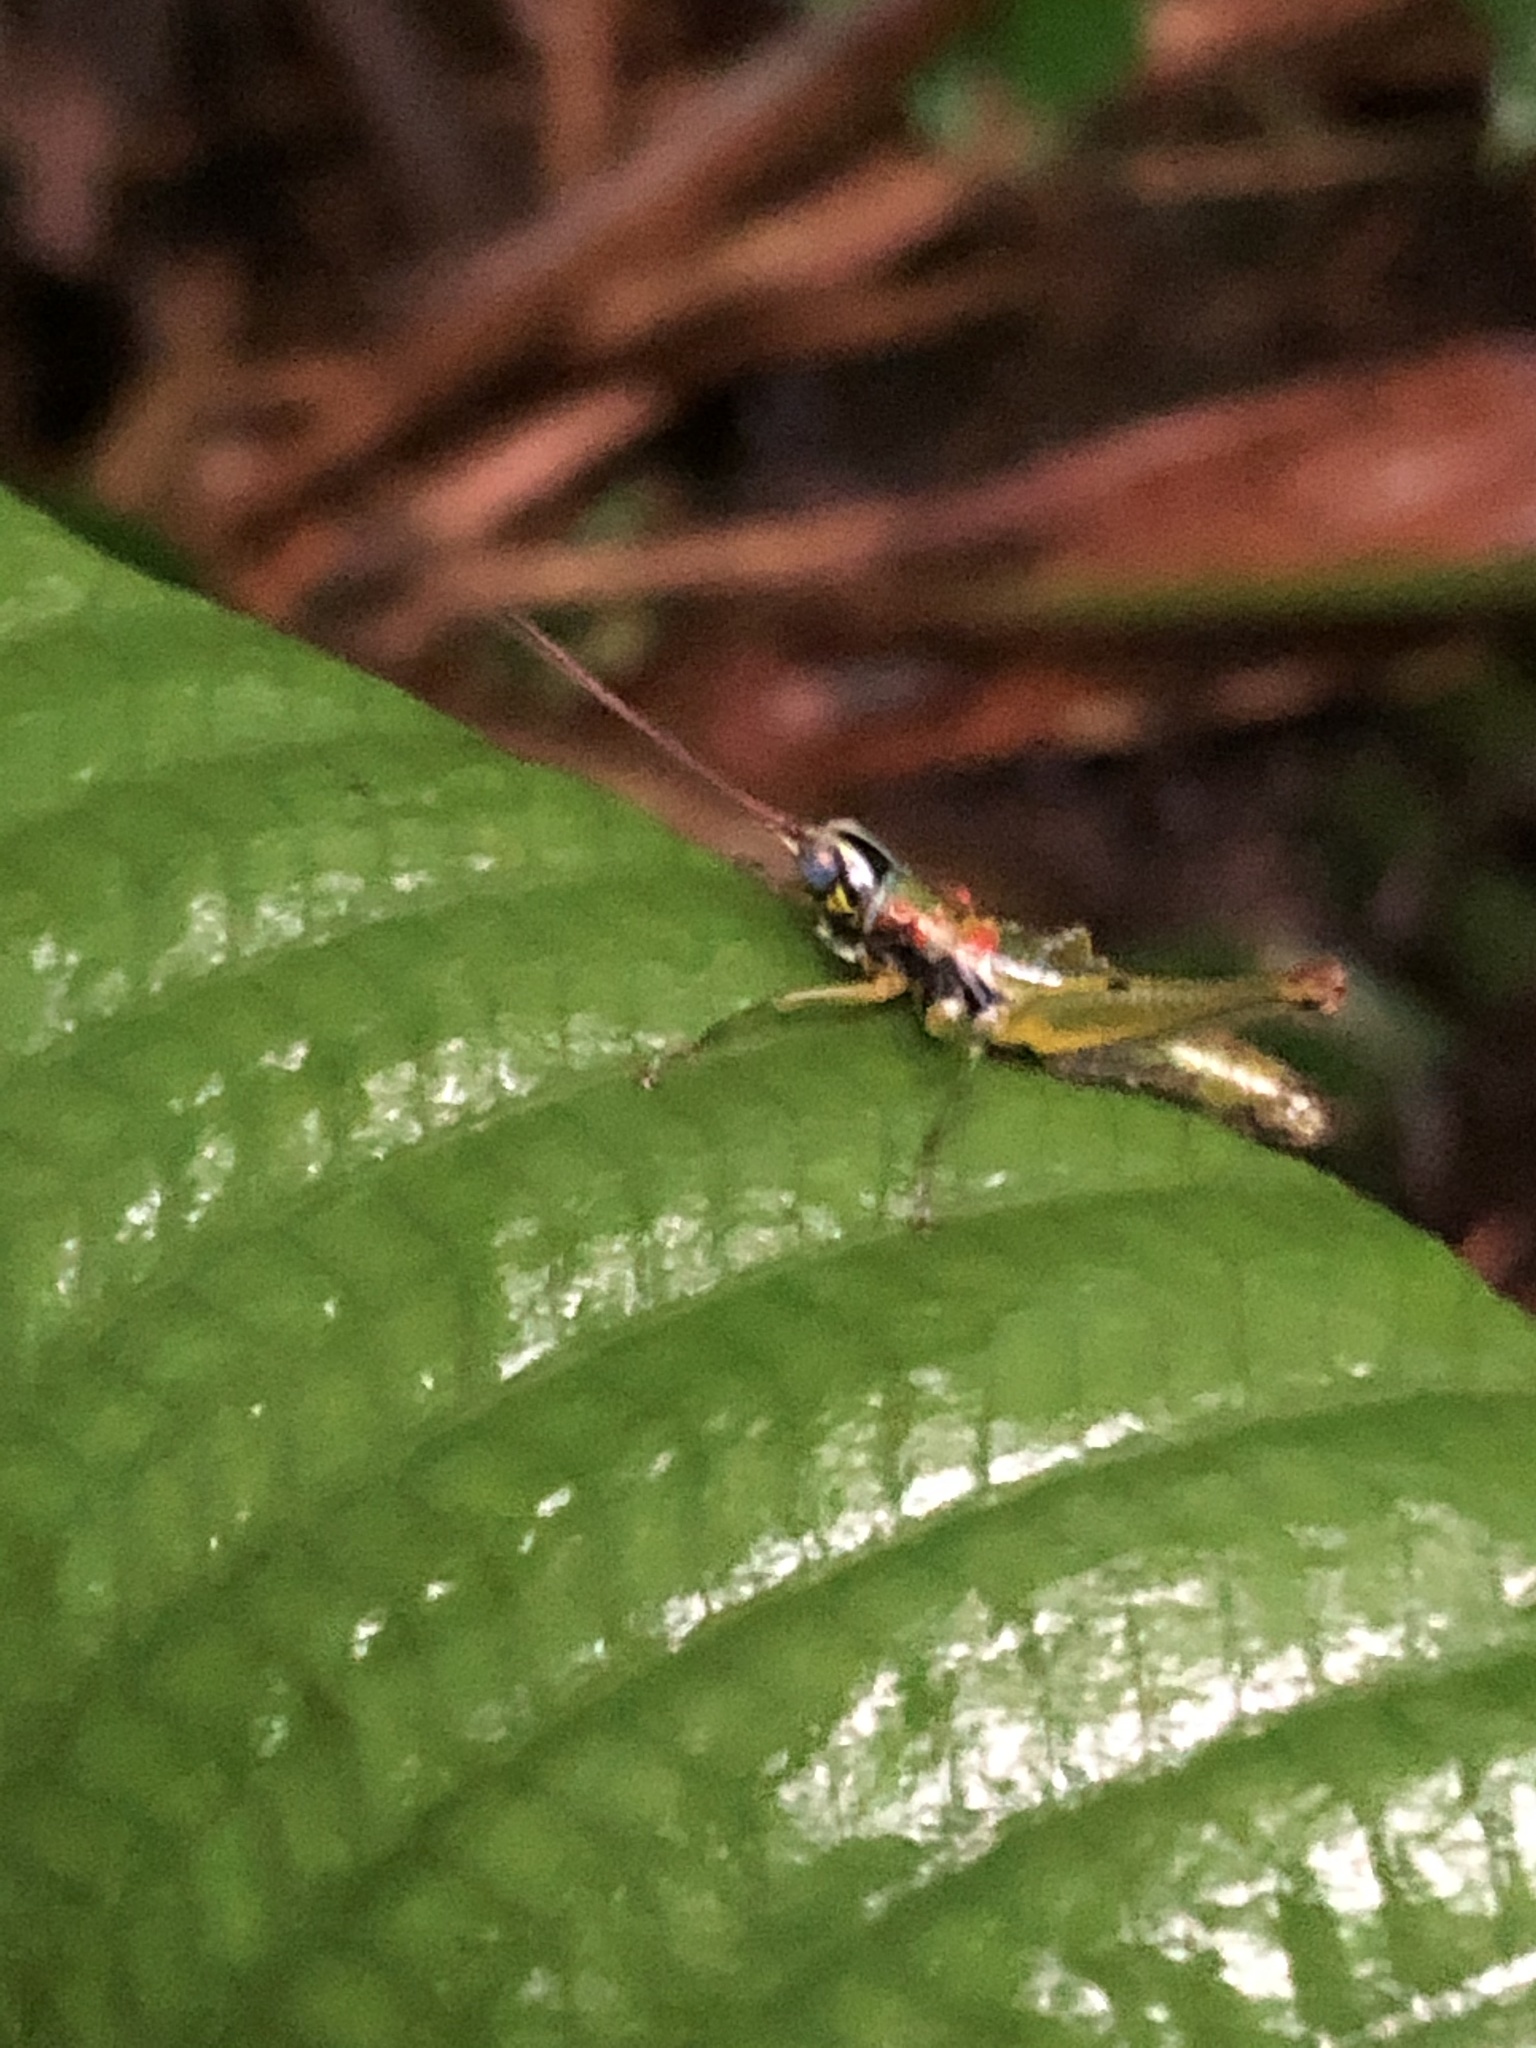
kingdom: Animalia
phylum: Arthropoda
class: Insecta
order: Orthoptera
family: Acrididae
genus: Contacris
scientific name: Contacris gemmea
